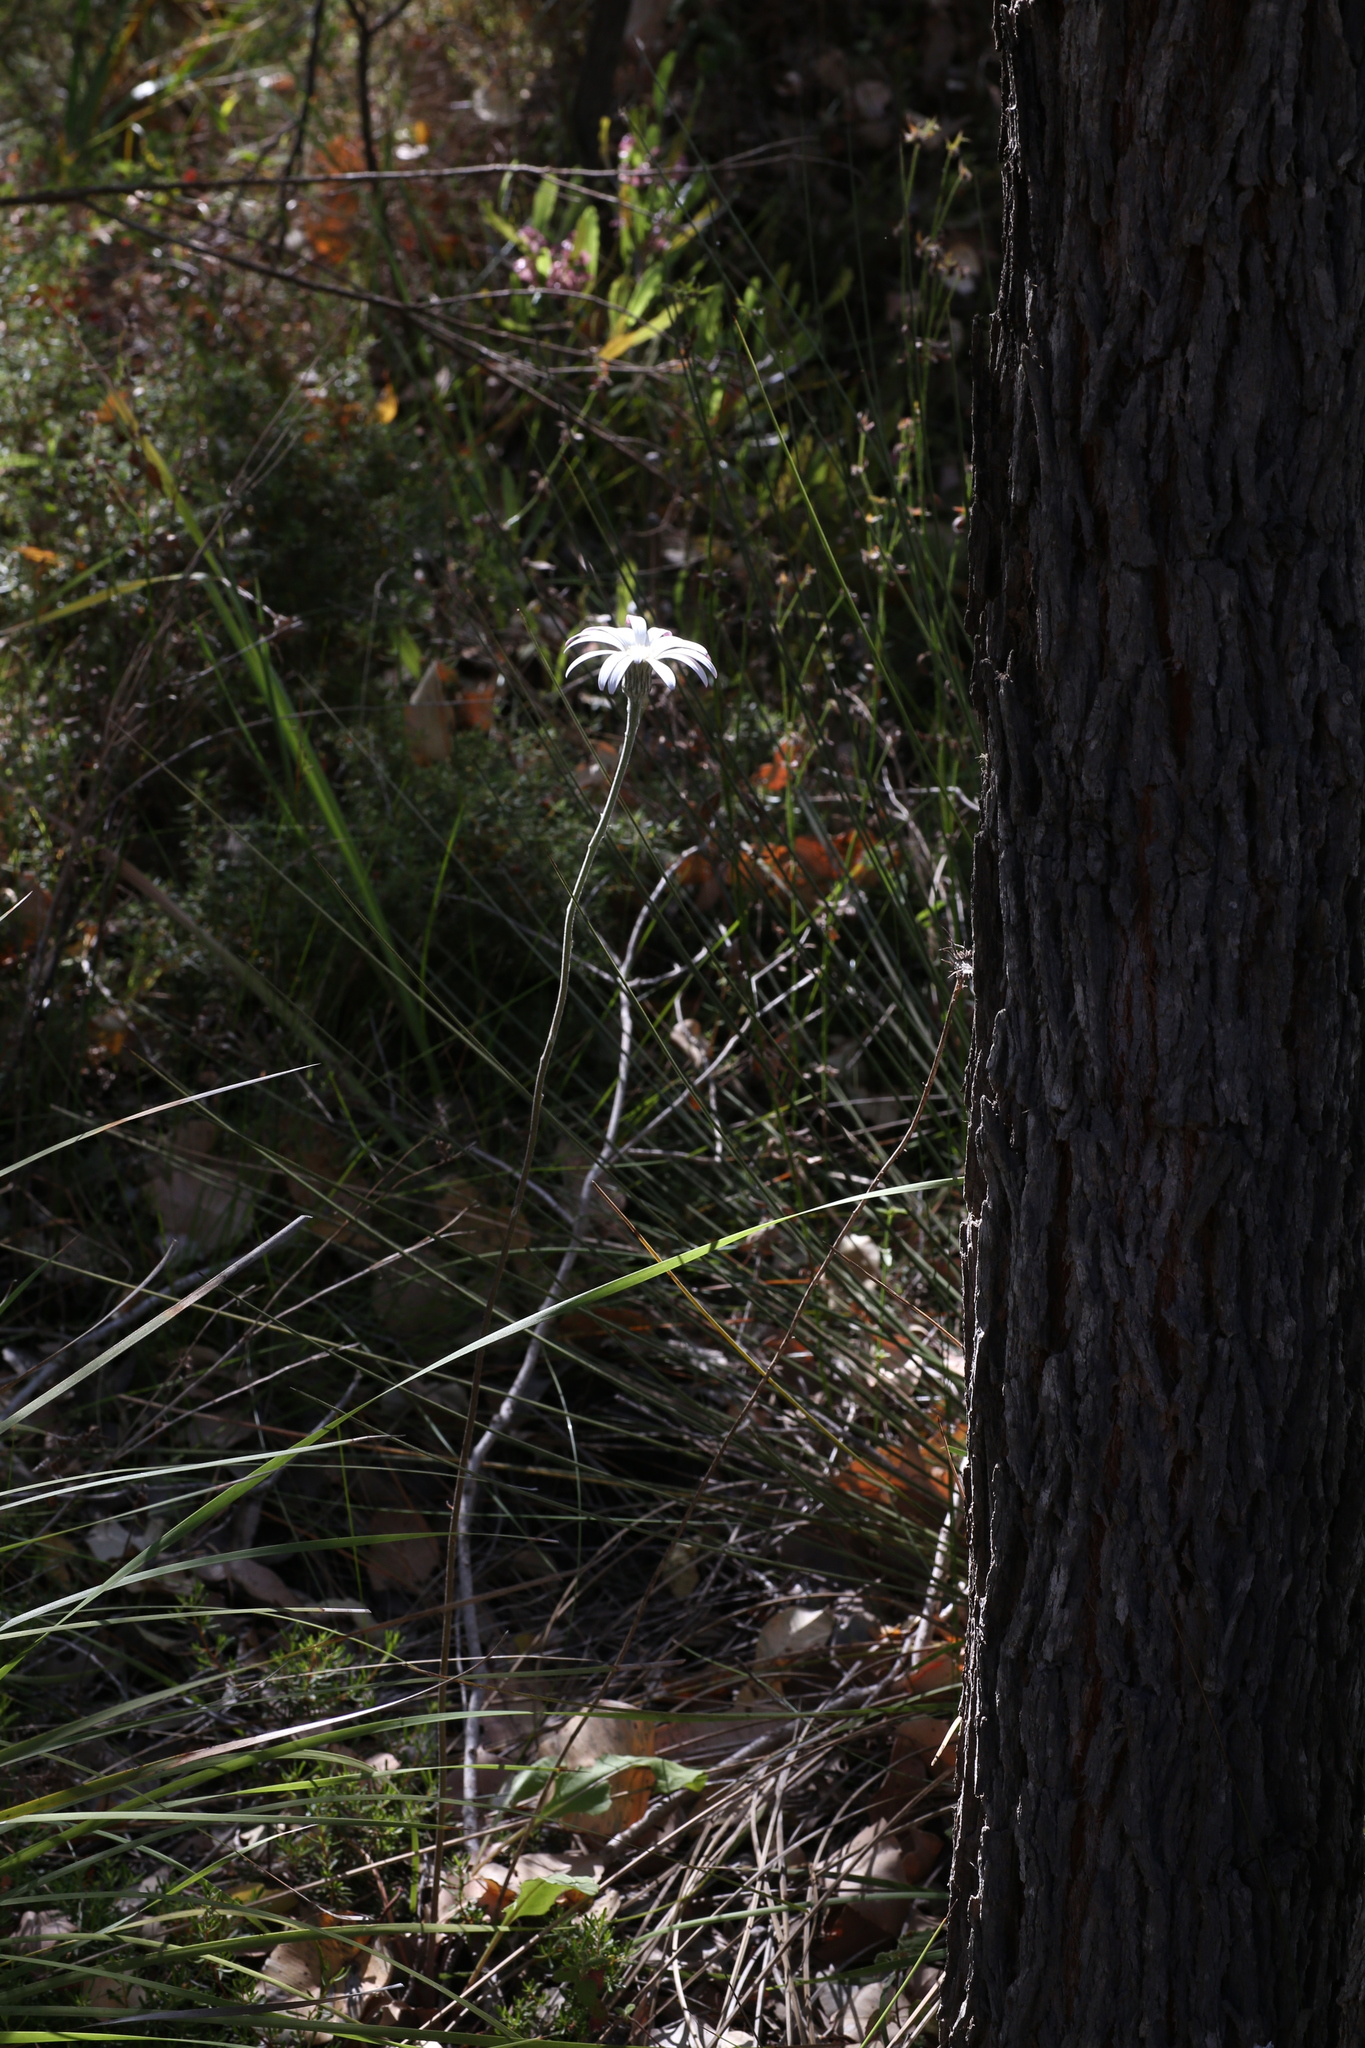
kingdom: Plantae
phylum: Tracheophyta
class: Magnoliopsida
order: Asterales
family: Asteraceae
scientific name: Asteraceae
